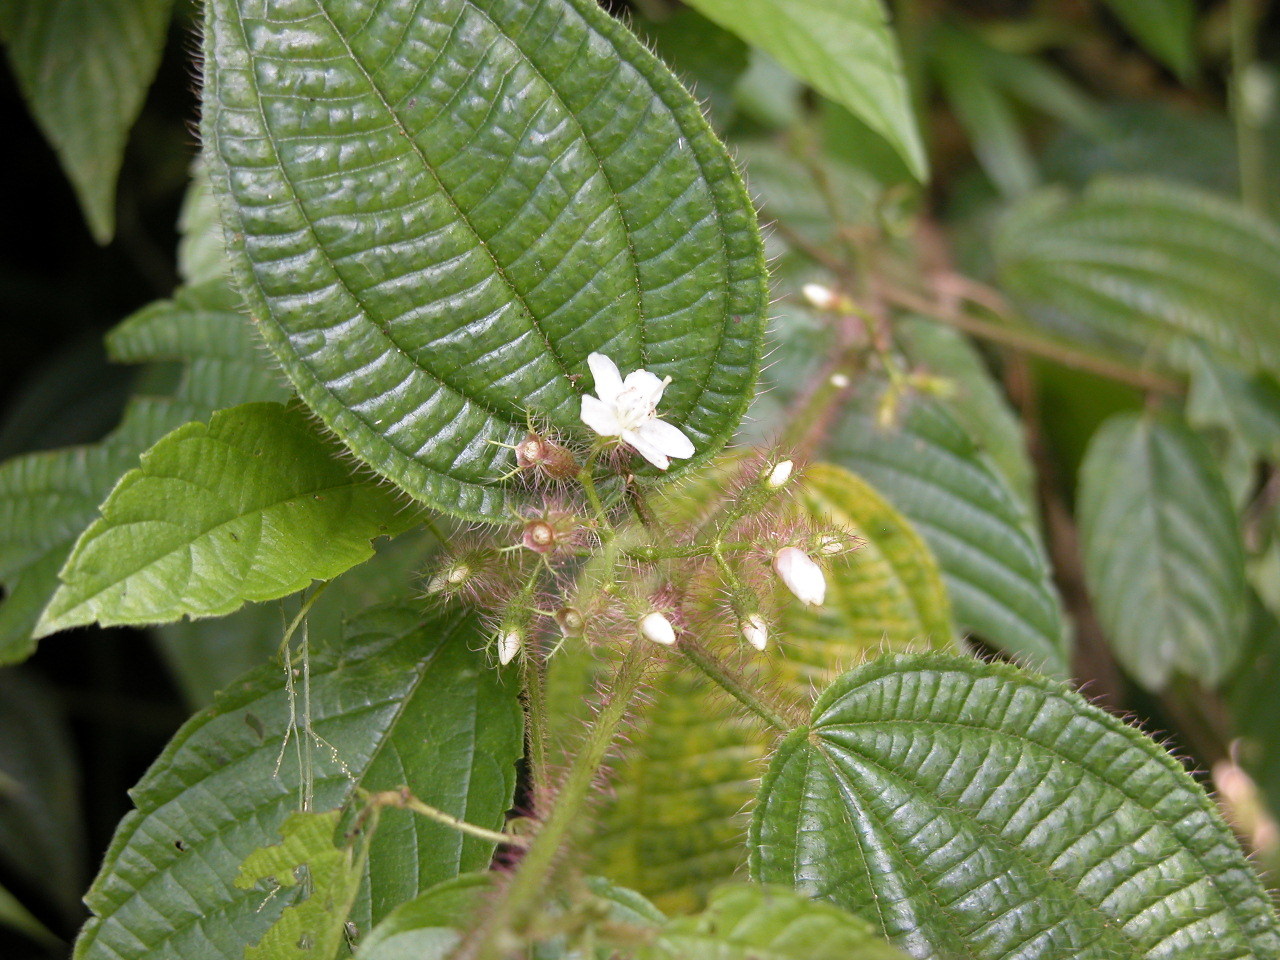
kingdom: Plantae
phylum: Tracheophyta
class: Magnoliopsida
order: Myrtales
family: Melastomataceae
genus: Miconia
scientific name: Miconia crenata
